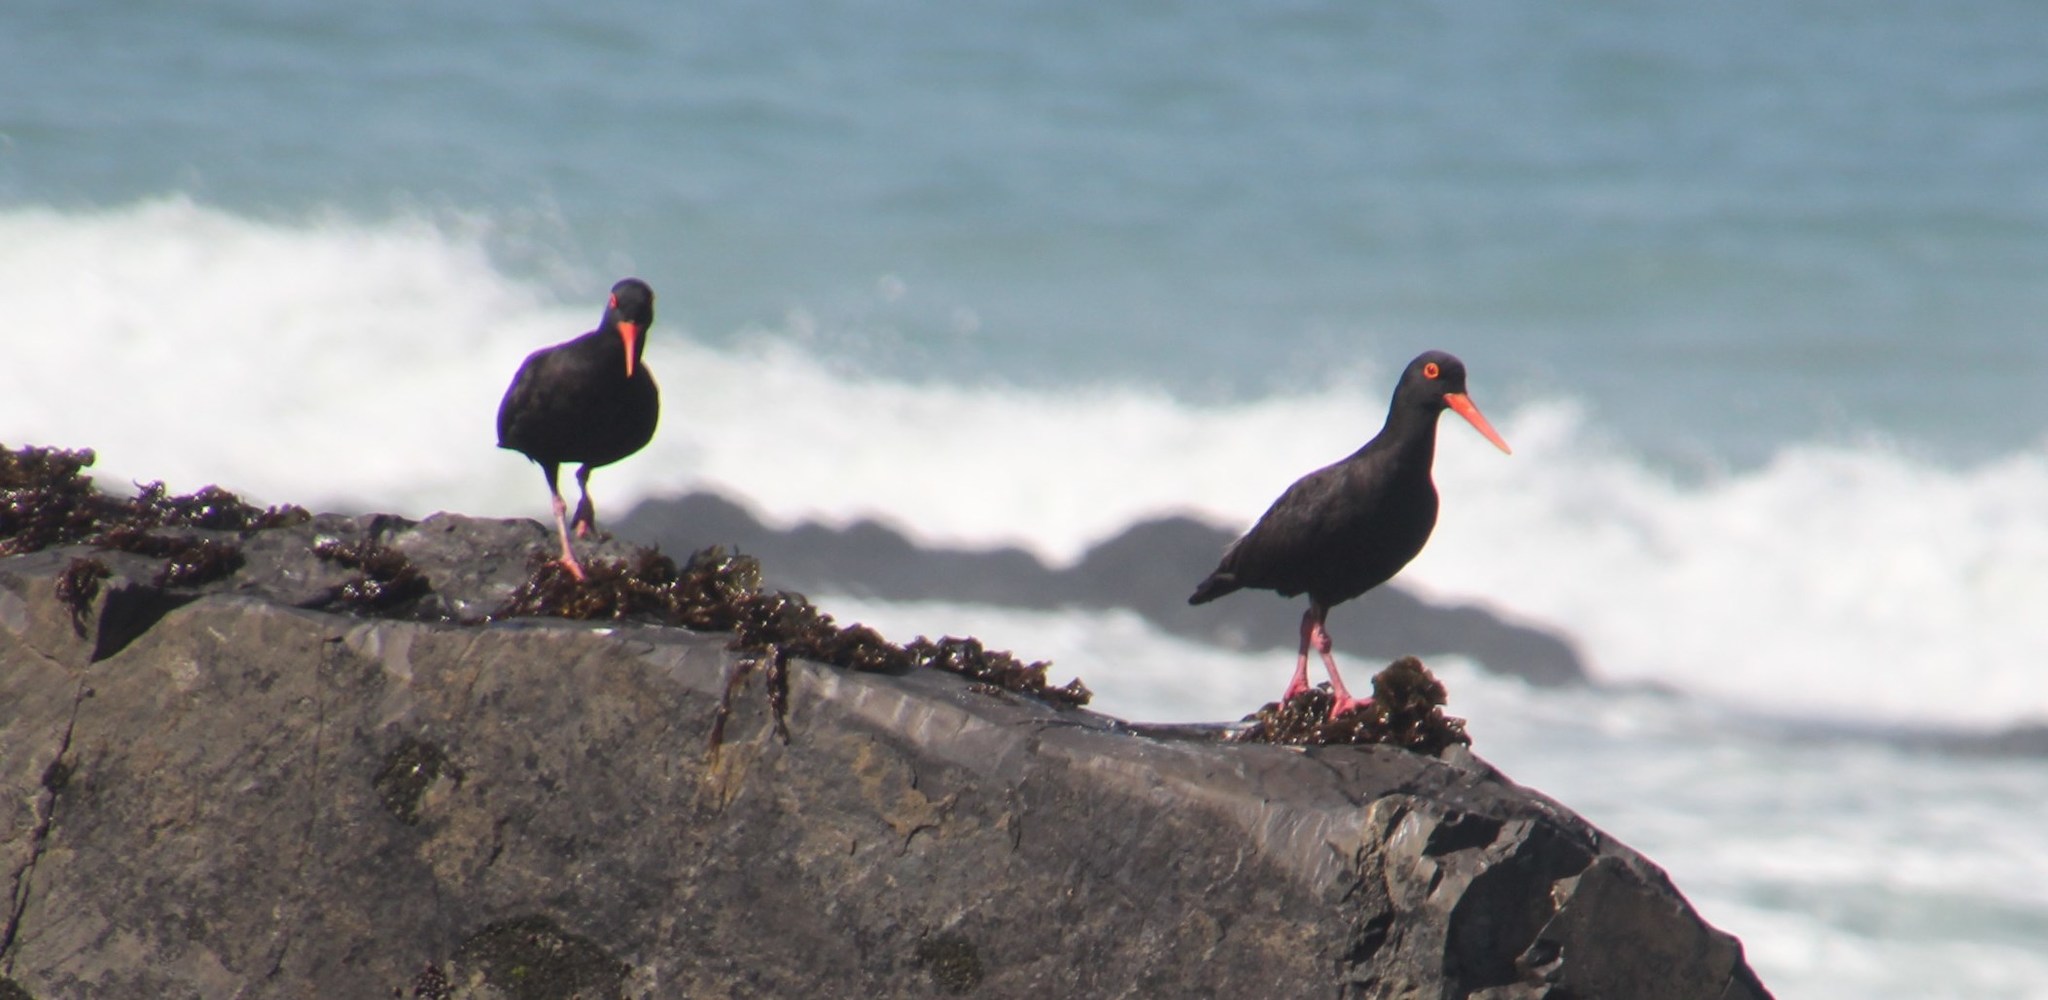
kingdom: Animalia
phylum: Chordata
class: Aves
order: Charadriiformes
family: Haematopodidae
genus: Haematopus
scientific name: Haematopus moquini
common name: African oystercatcher
